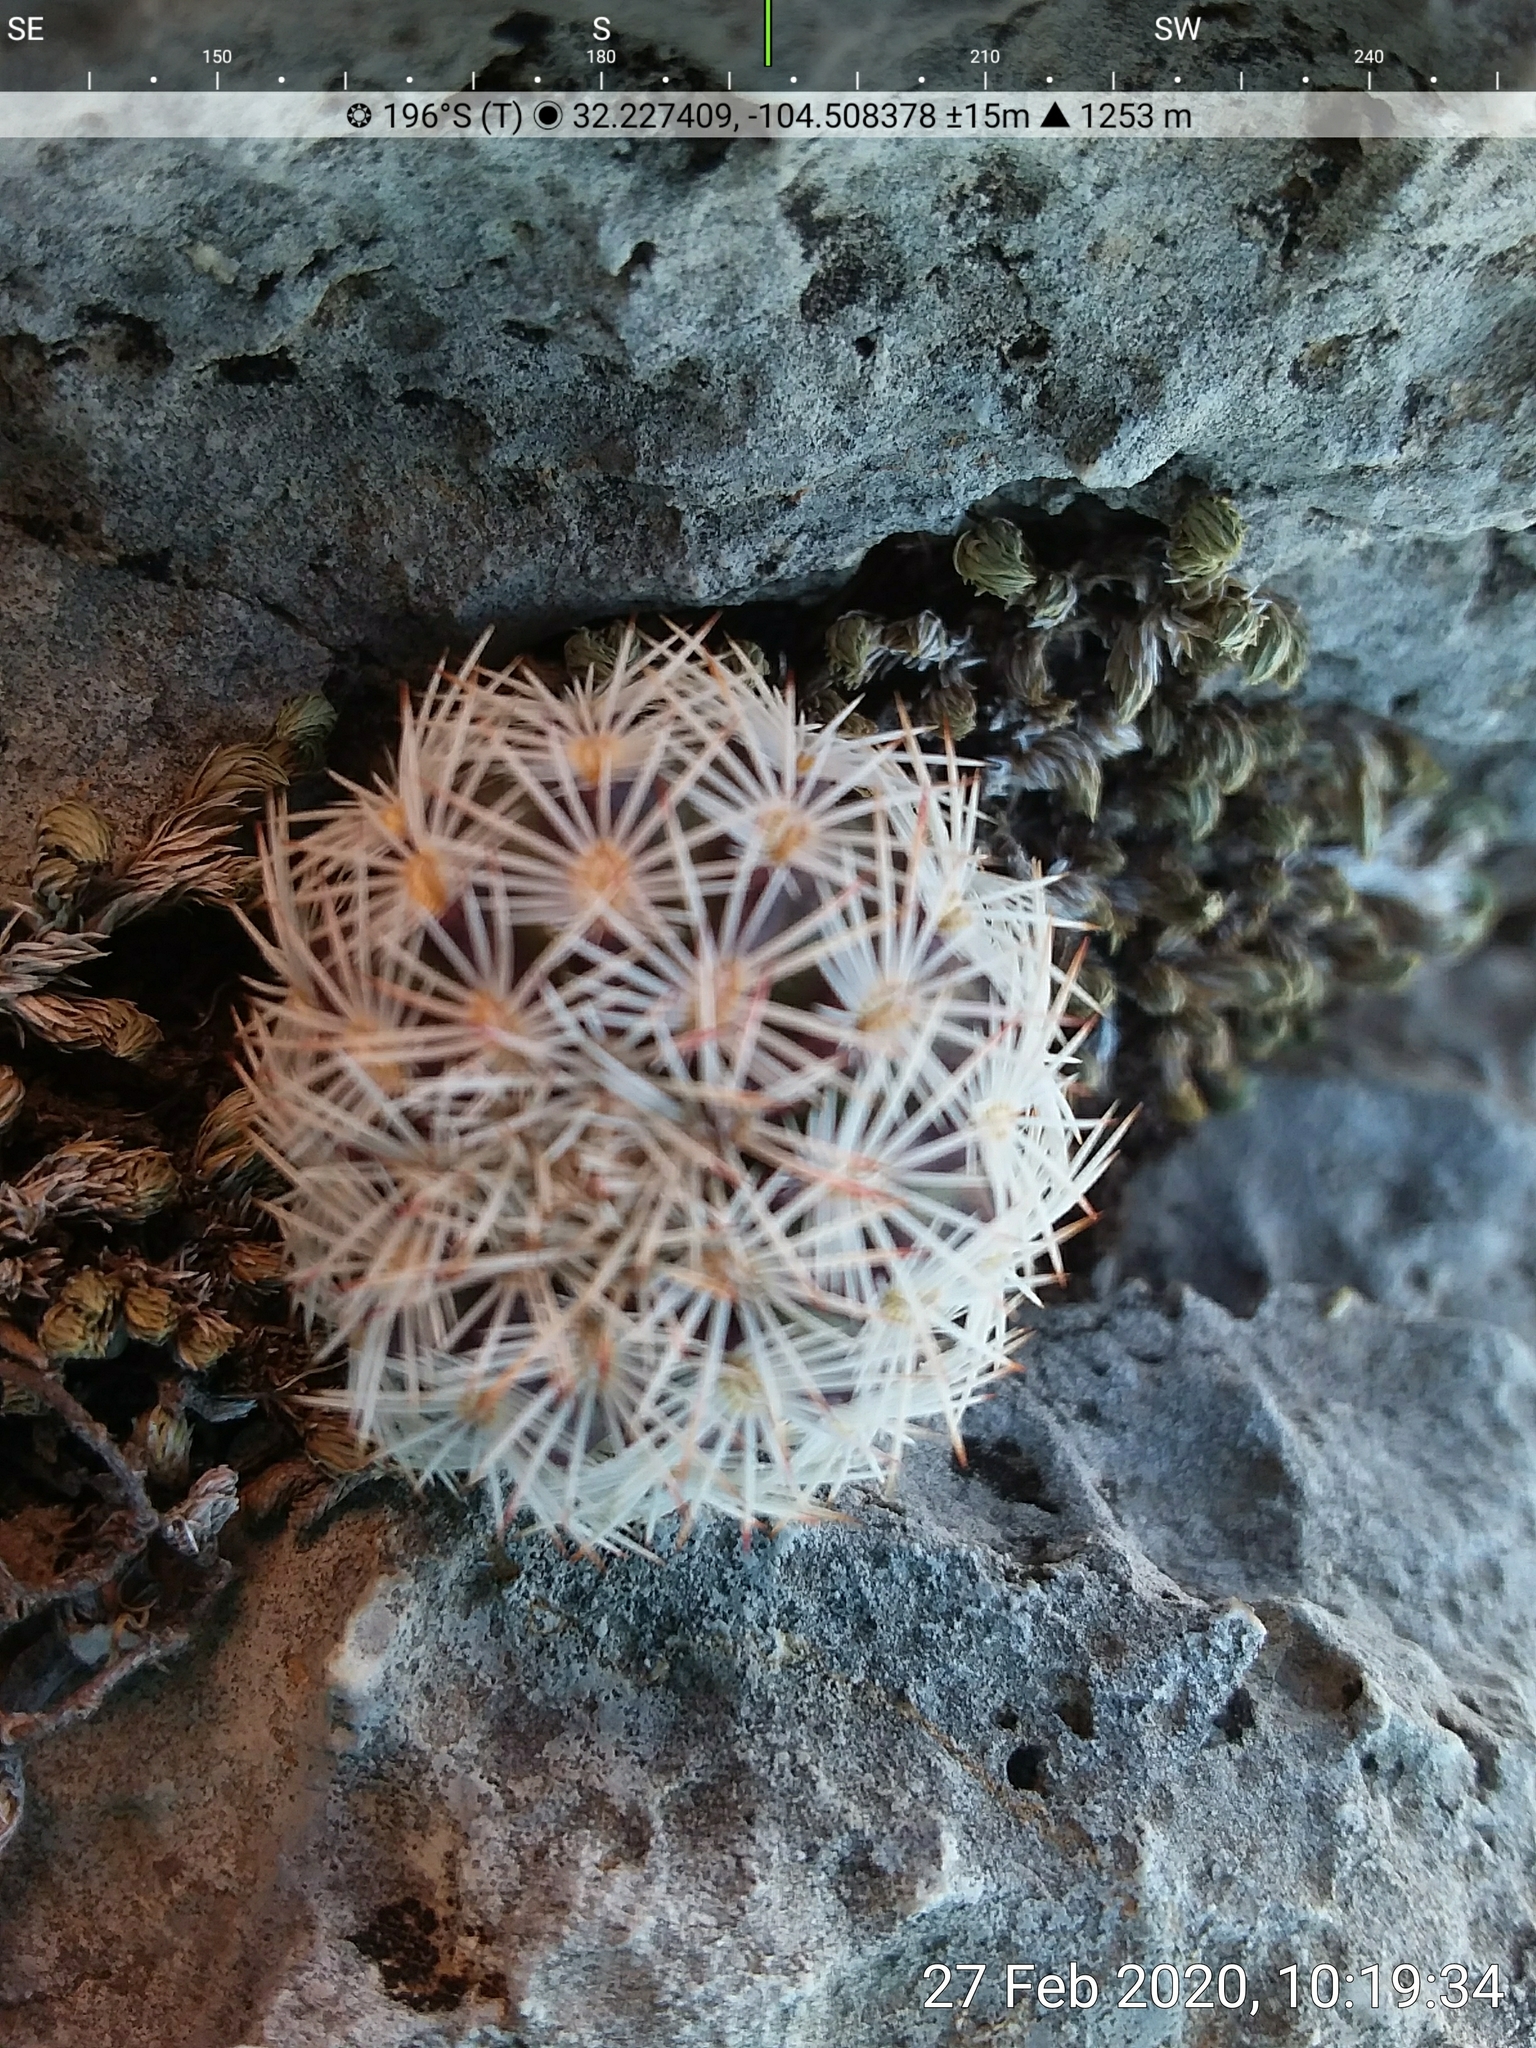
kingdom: Plantae
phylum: Tracheophyta
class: Magnoliopsida
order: Caryophyllales
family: Cactaceae
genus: Echinocereus
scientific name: Echinocereus viridiflorus
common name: Nylon hedgehog cactus
